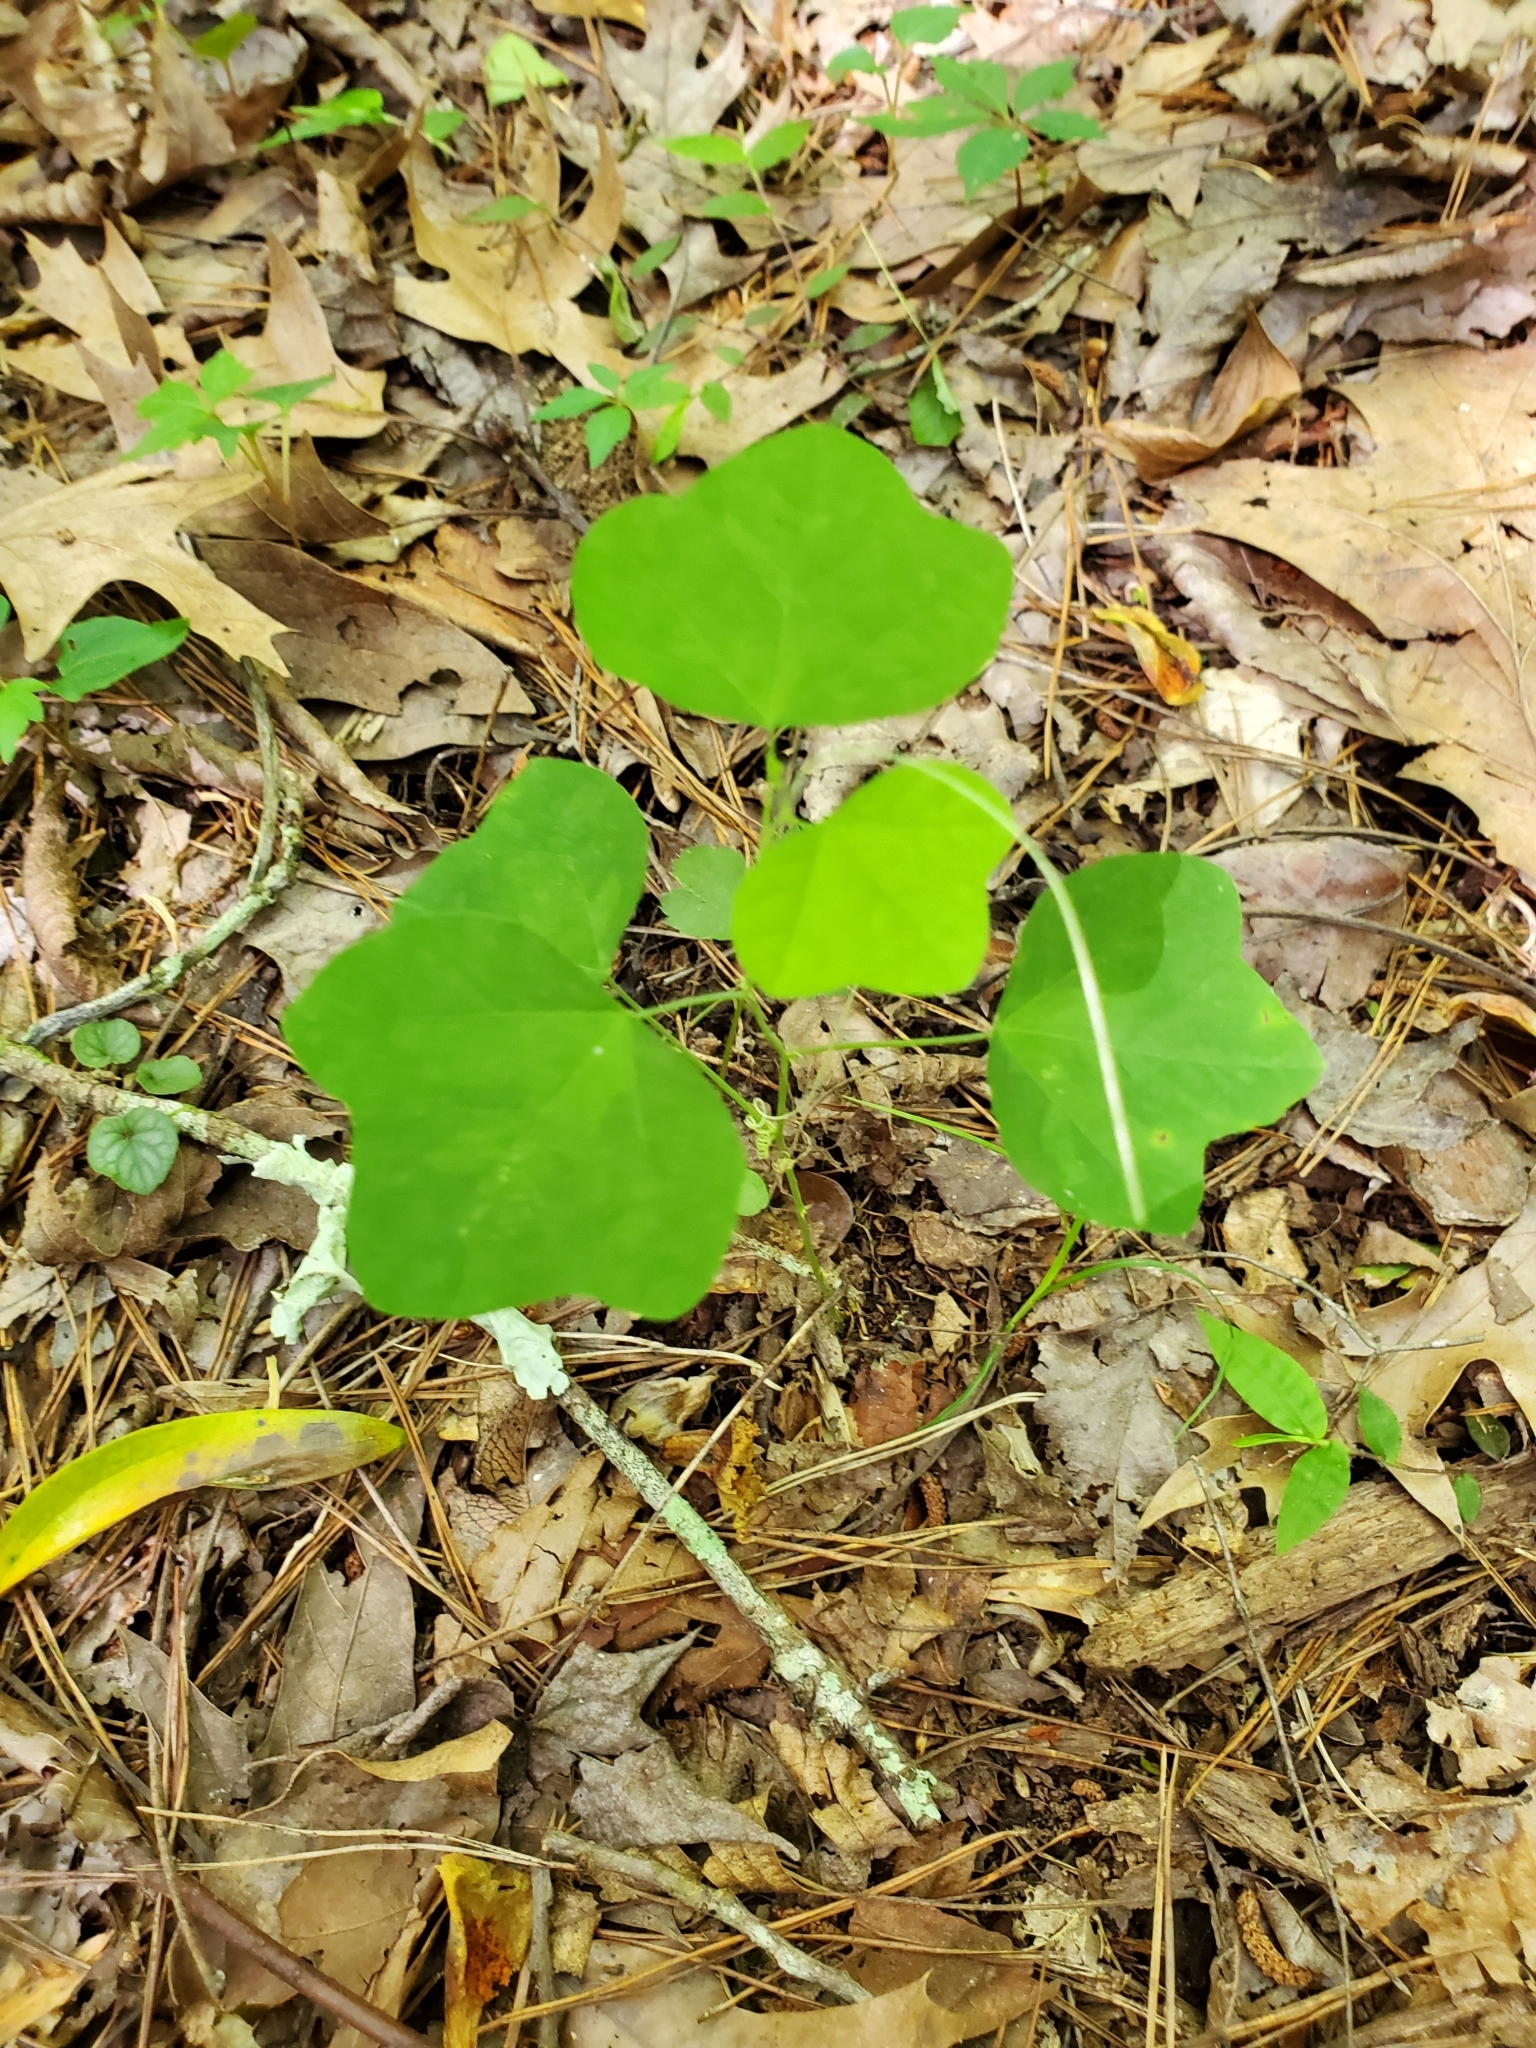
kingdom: Plantae
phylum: Tracheophyta
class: Magnoliopsida
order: Malpighiales
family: Passifloraceae
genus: Passiflora
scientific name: Passiflora lutea
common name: Yellow passionflower
